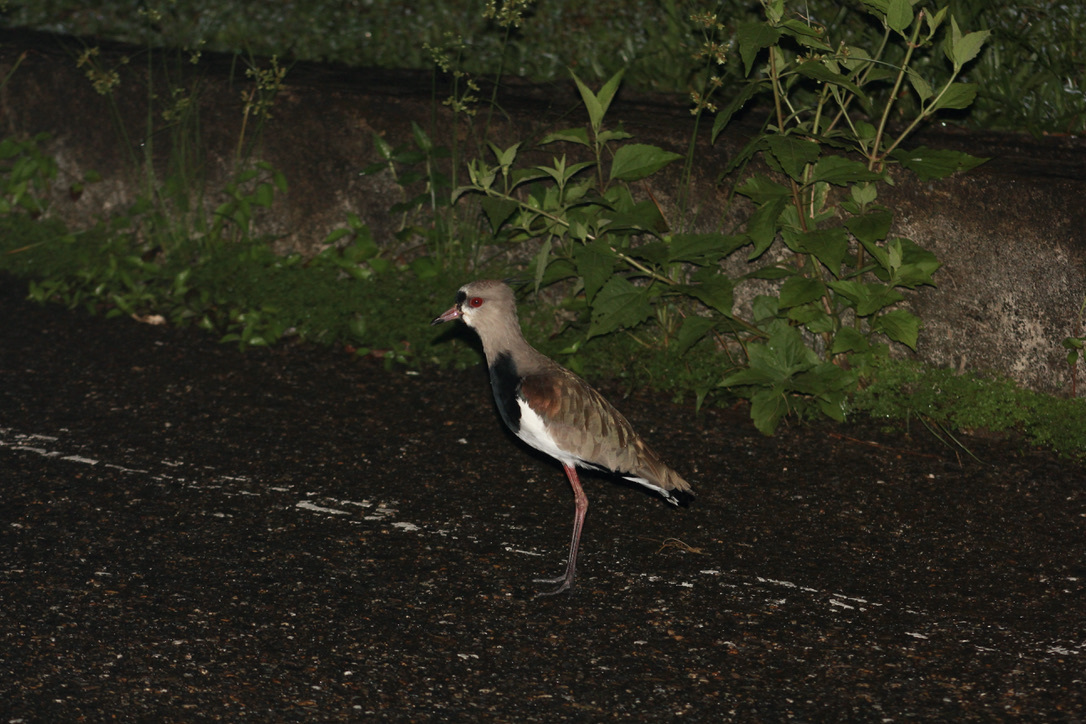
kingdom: Animalia
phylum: Chordata
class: Aves
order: Charadriiformes
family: Charadriidae
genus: Vanellus
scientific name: Vanellus chilensis
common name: Southern lapwing
